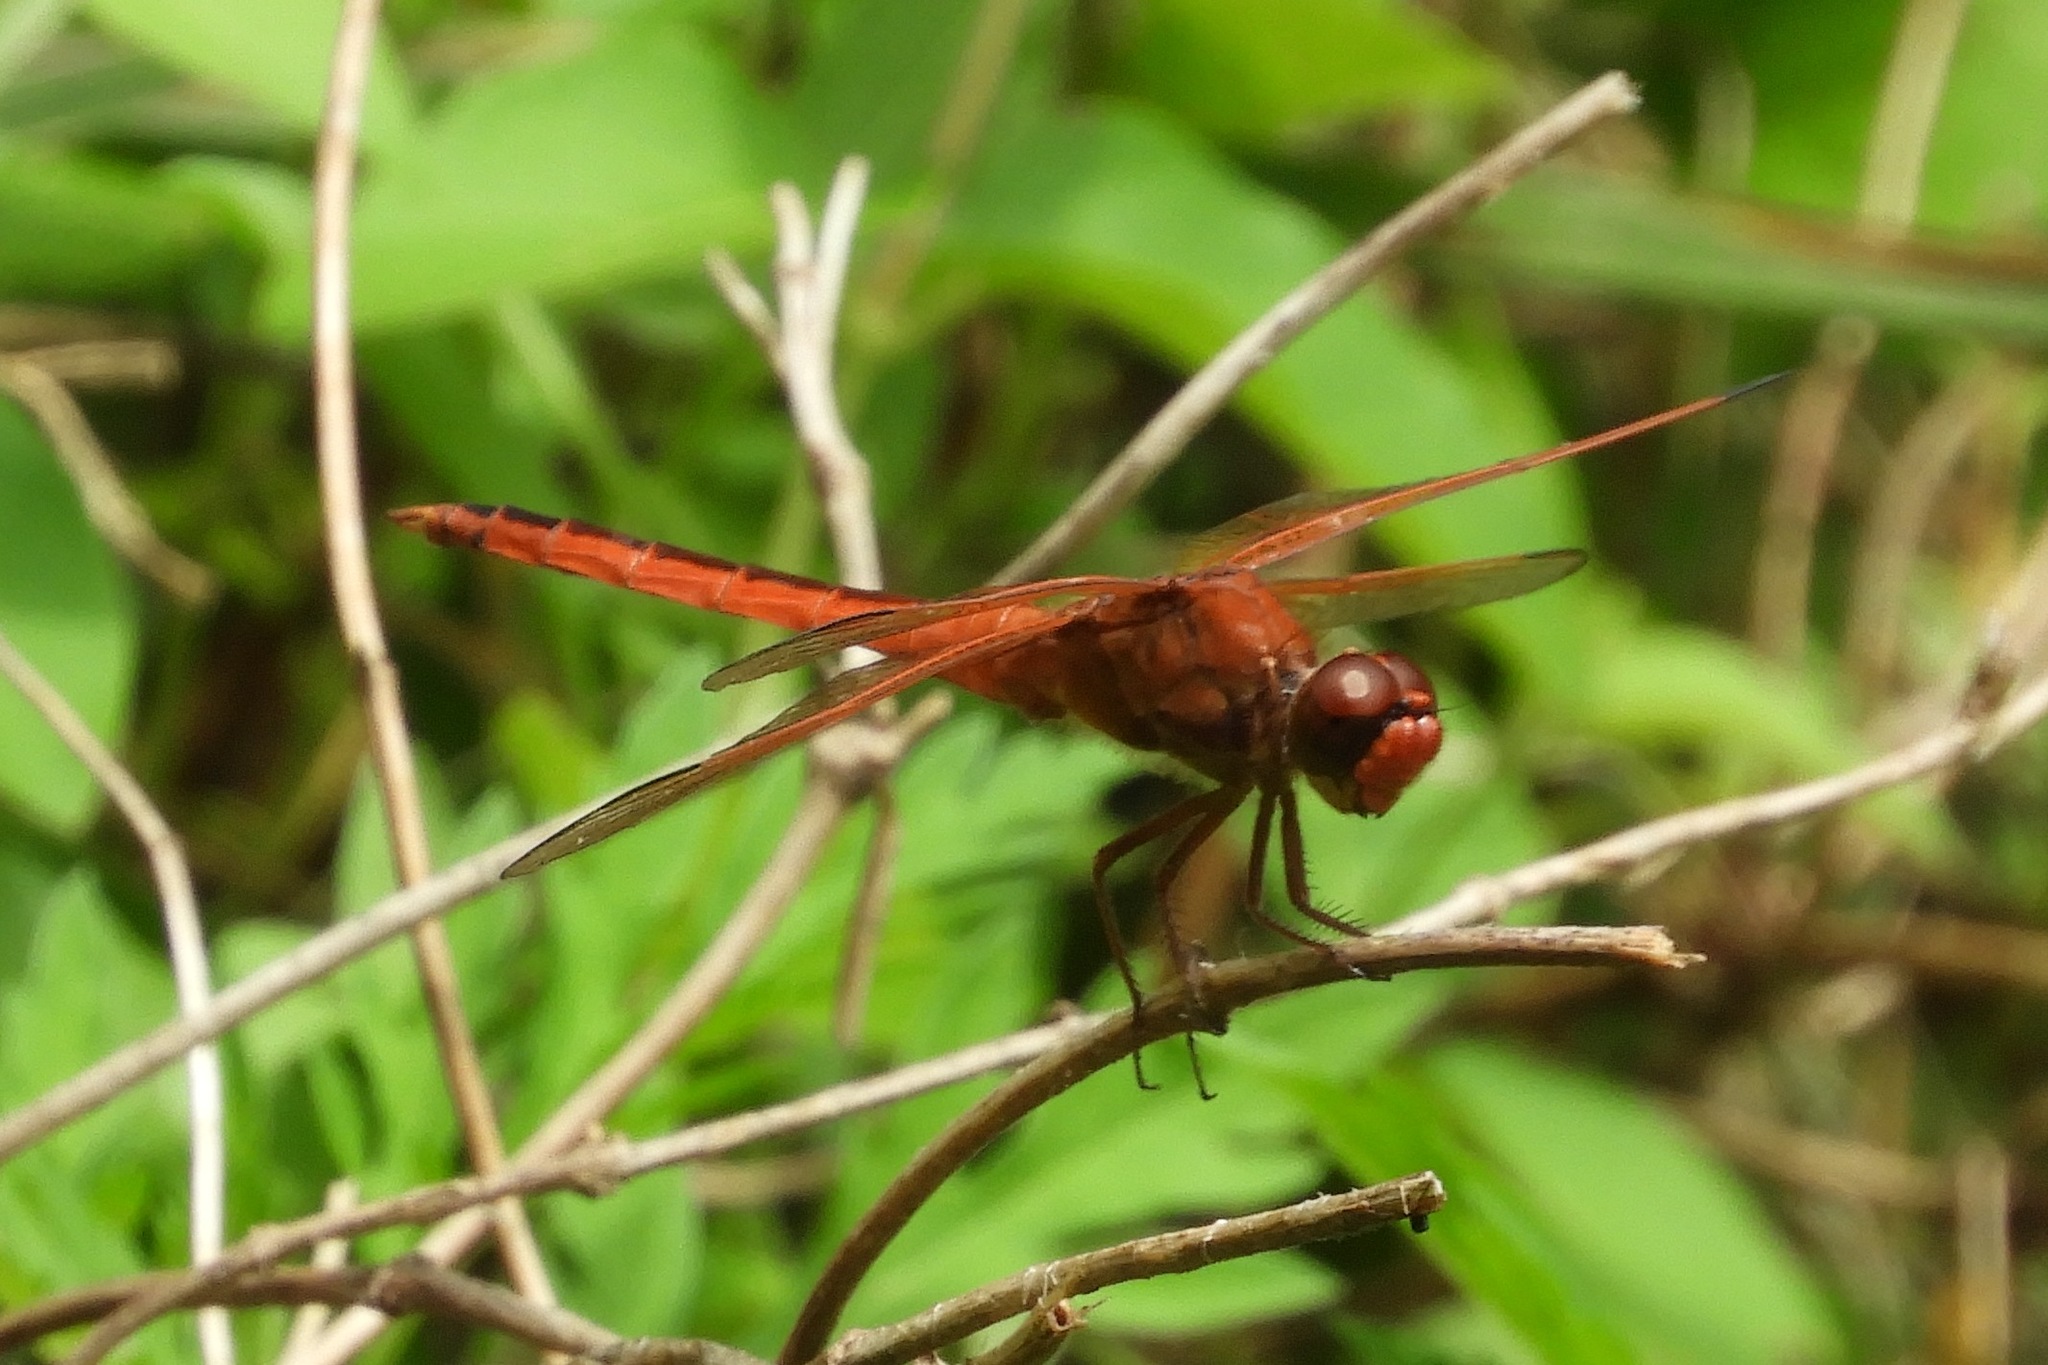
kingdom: Animalia
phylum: Arthropoda
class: Insecta
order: Odonata
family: Libellulidae
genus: Libellula
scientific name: Libellula needhami
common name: Needham's skimmer
